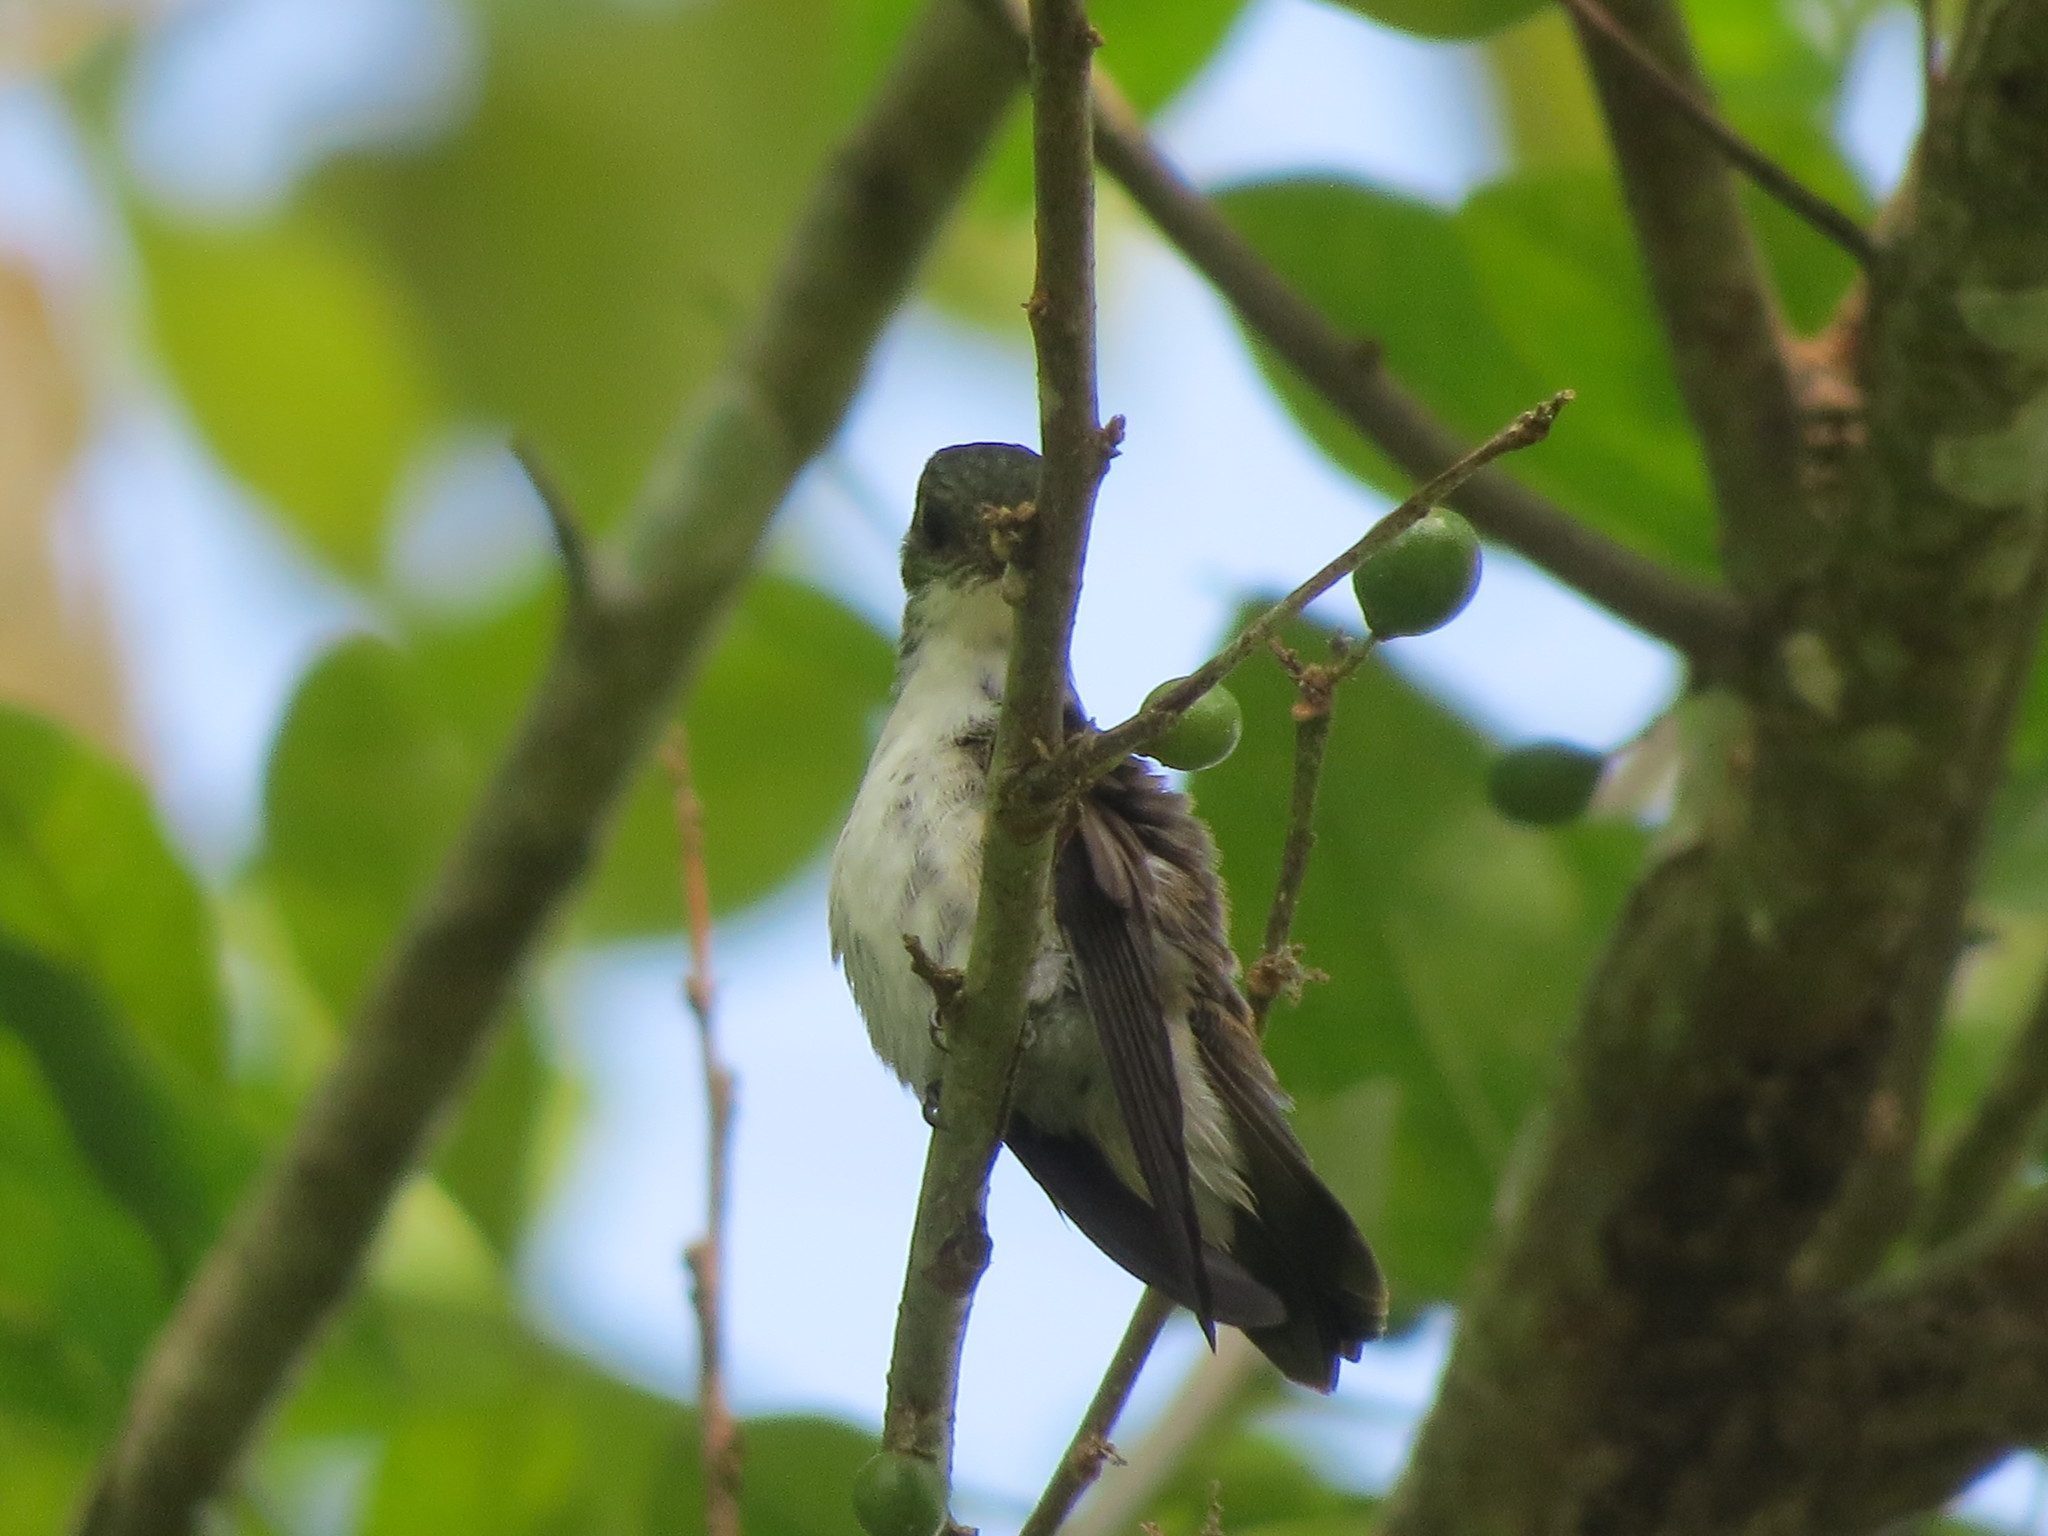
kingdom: Animalia
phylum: Chordata
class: Aves
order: Apodiformes
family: Trochilidae
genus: Chlorestes
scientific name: Chlorestes candida
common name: White-bellied emerald
